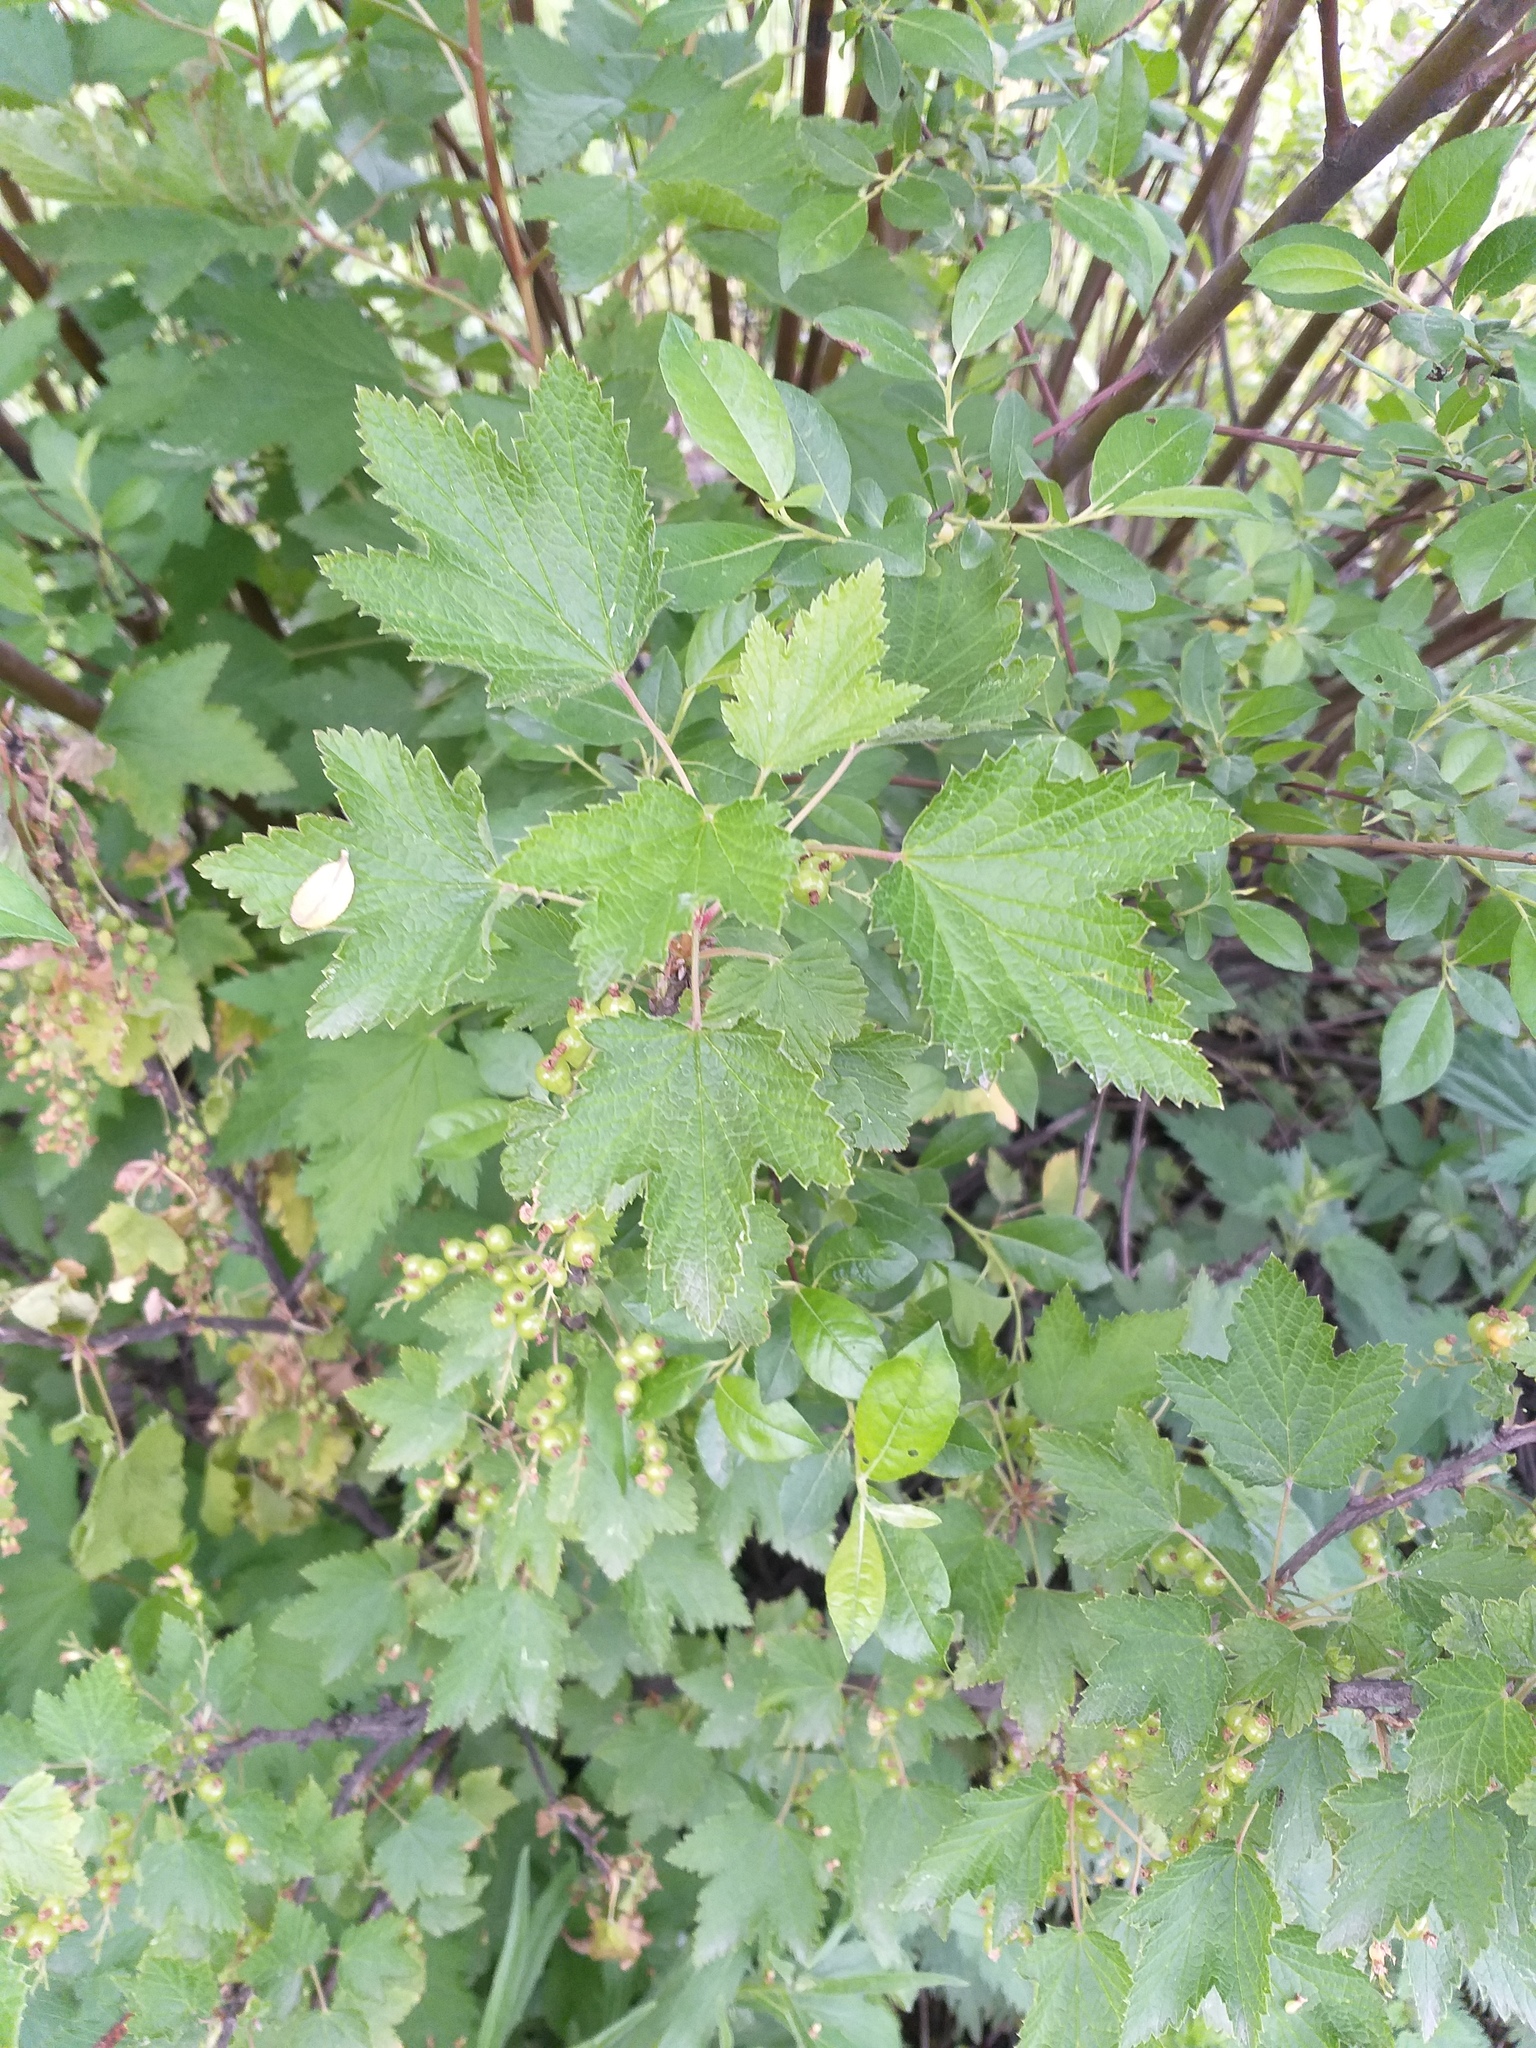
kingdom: Plantae
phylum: Tracheophyta
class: Magnoliopsida
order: Saxifragales
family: Grossulariaceae
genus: Ribes
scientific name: Ribes spicatum
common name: Downy currant
